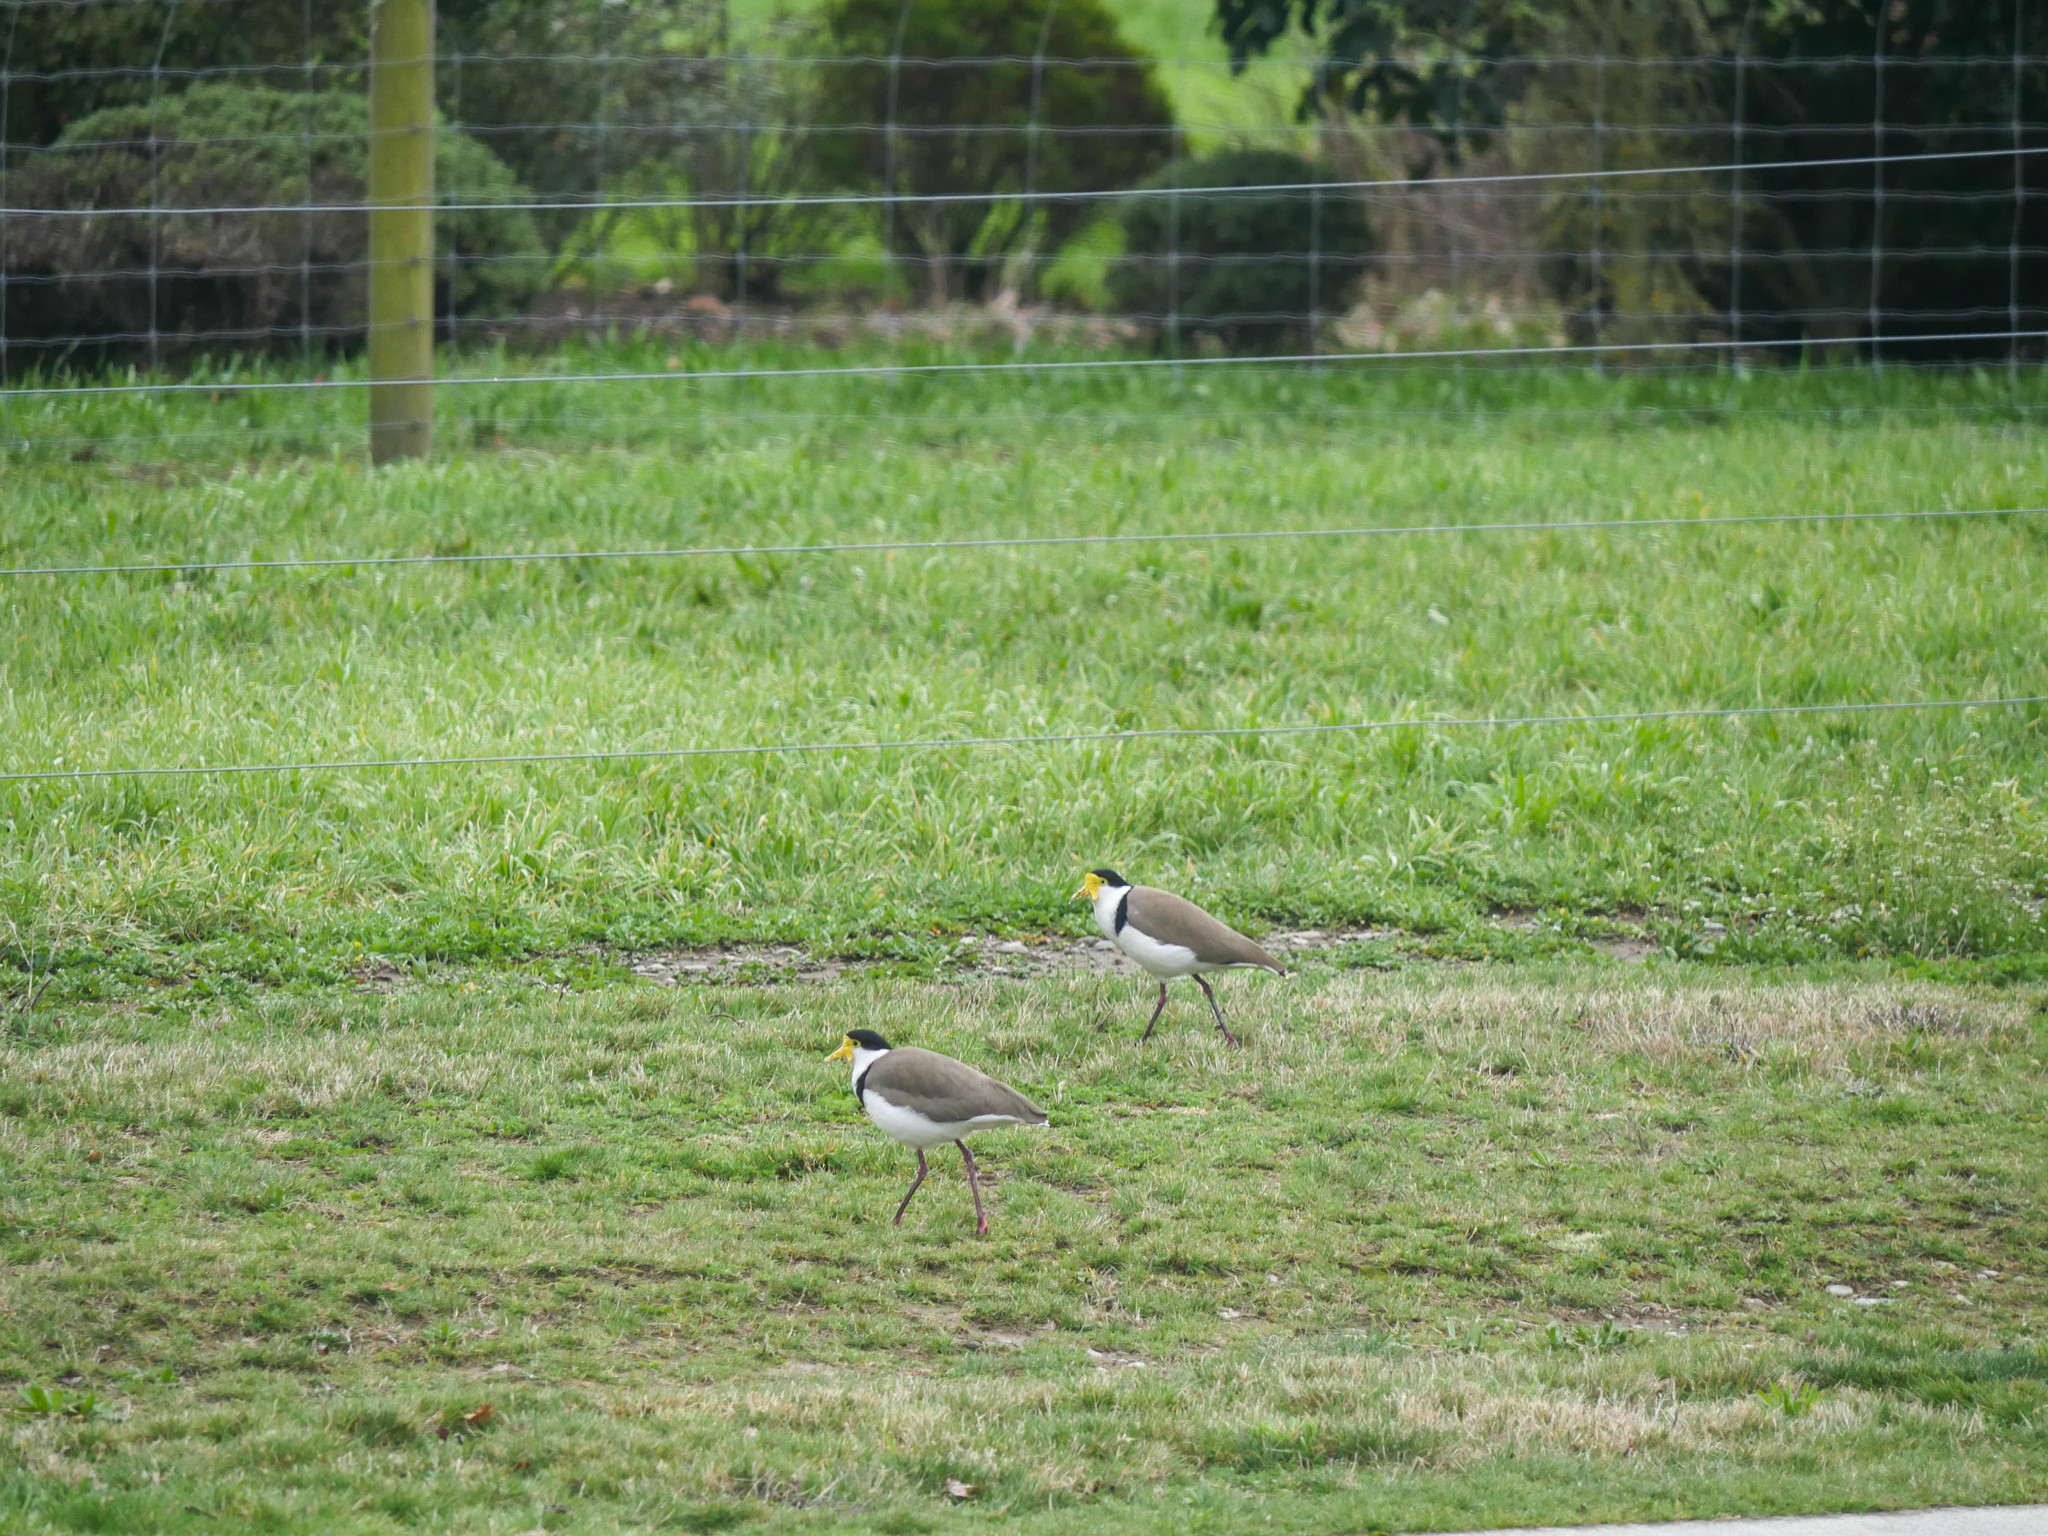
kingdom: Animalia
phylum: Chordata
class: Aves
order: Charadriiformes
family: Charadriidae
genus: Vanellus
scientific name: Vanellus miles
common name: Masked lapwing
